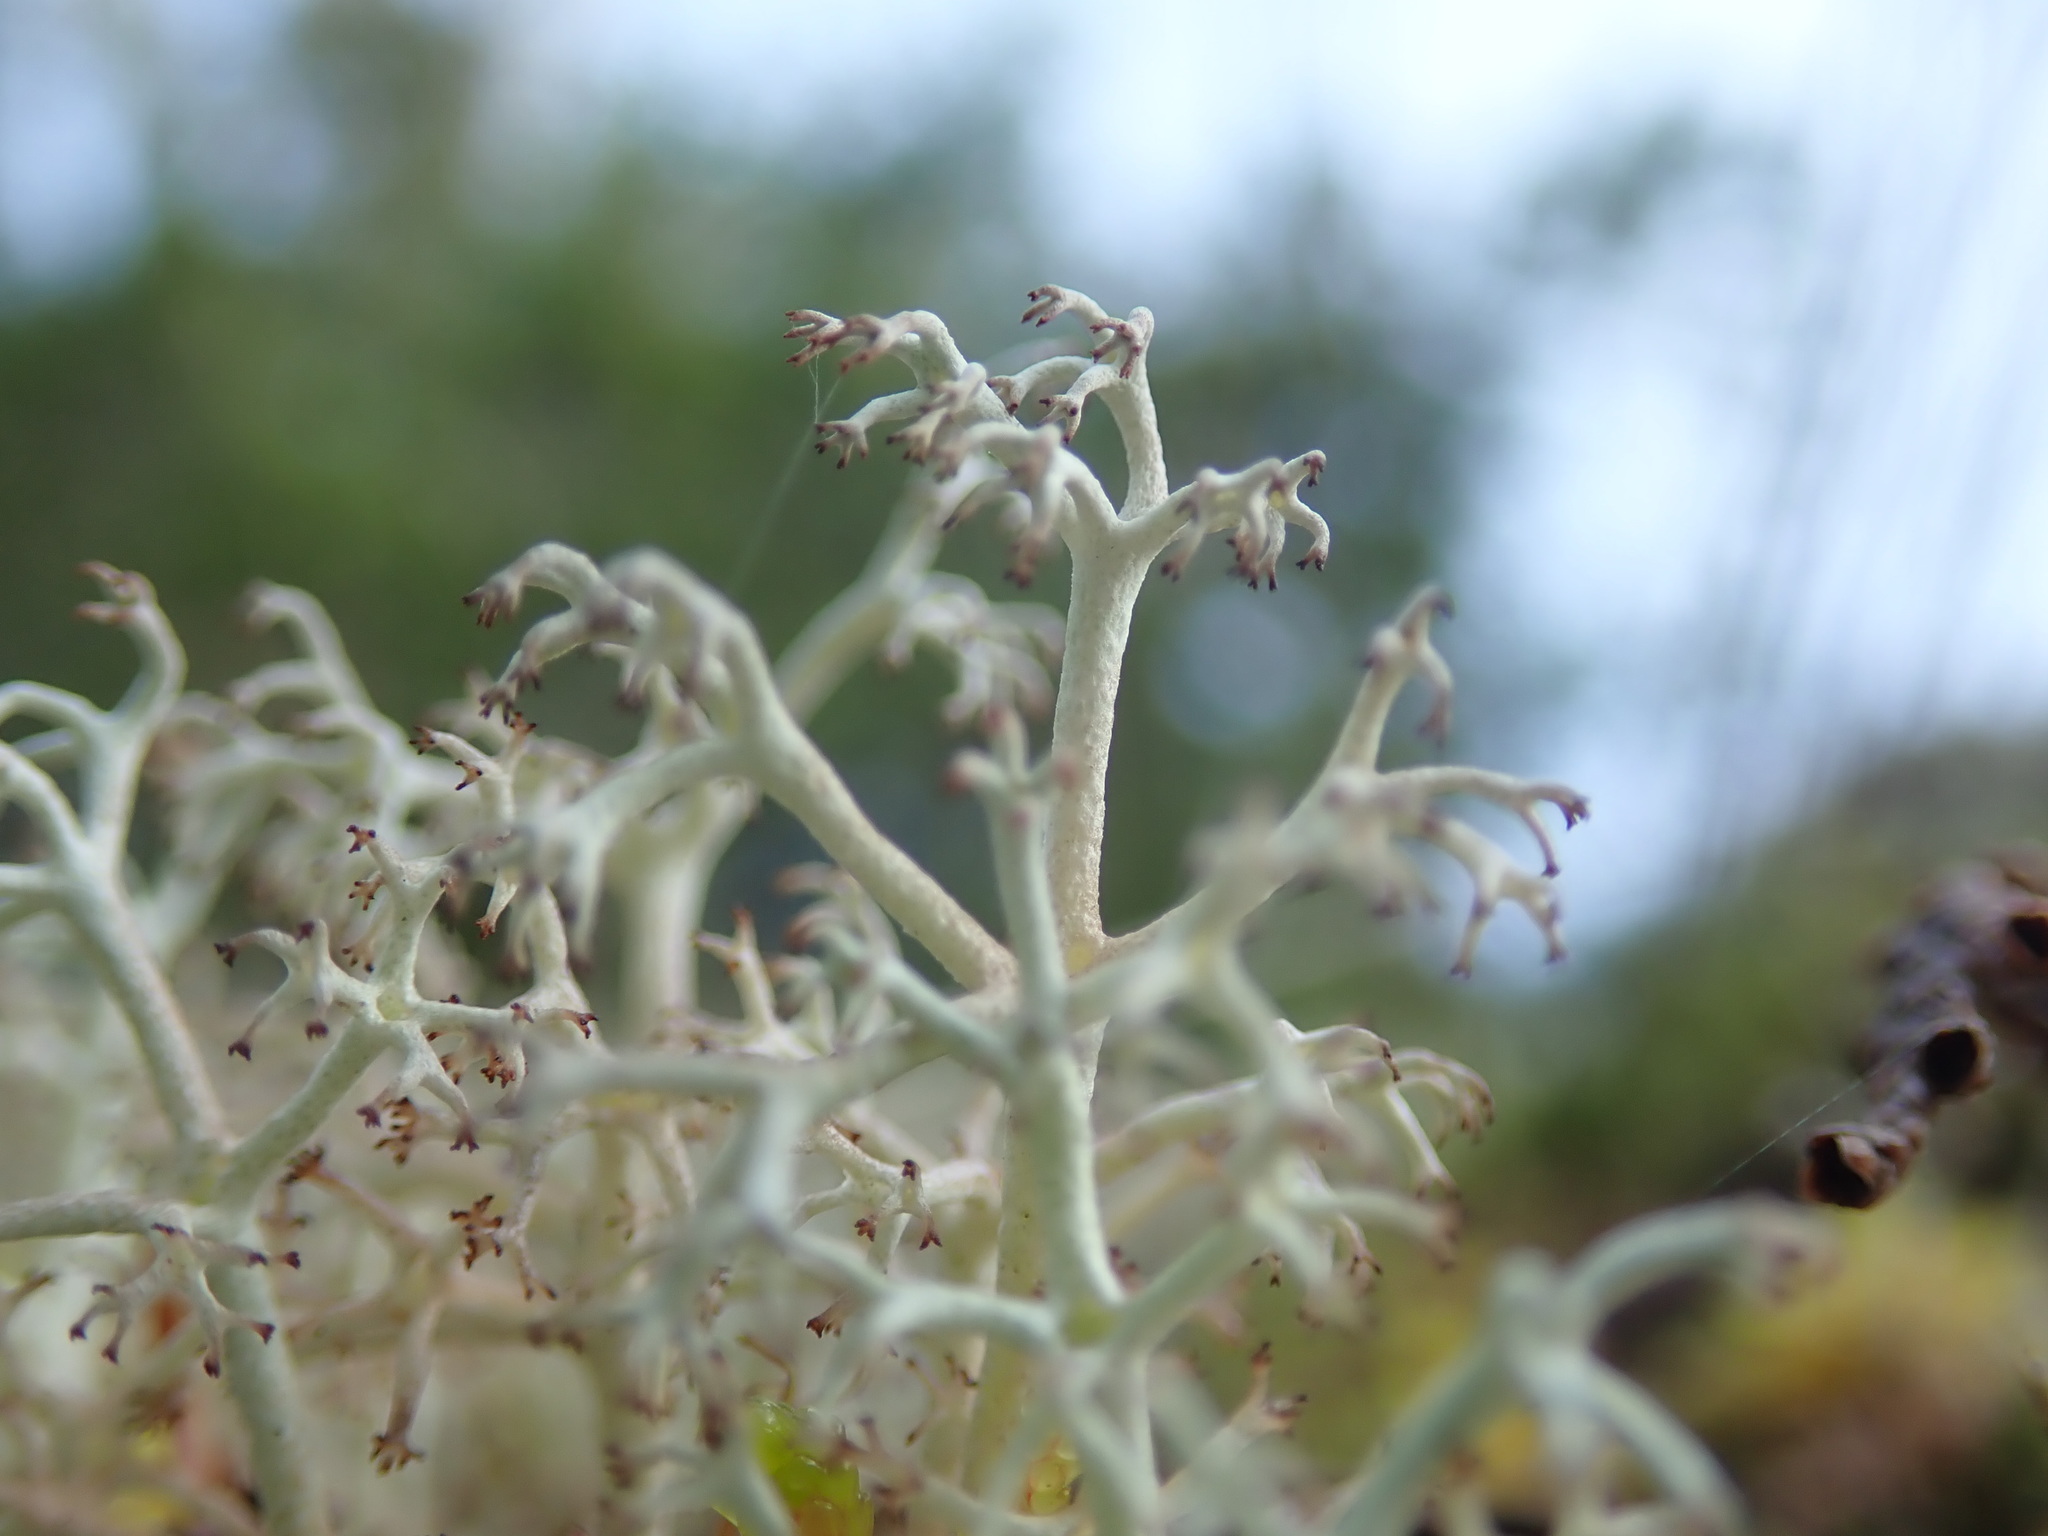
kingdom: Fungi
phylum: Ascomycota
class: Lecanoromycetes
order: Lecanorales
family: Cladoniaceae
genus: Cladonia
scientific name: Cladonia rangiferina
